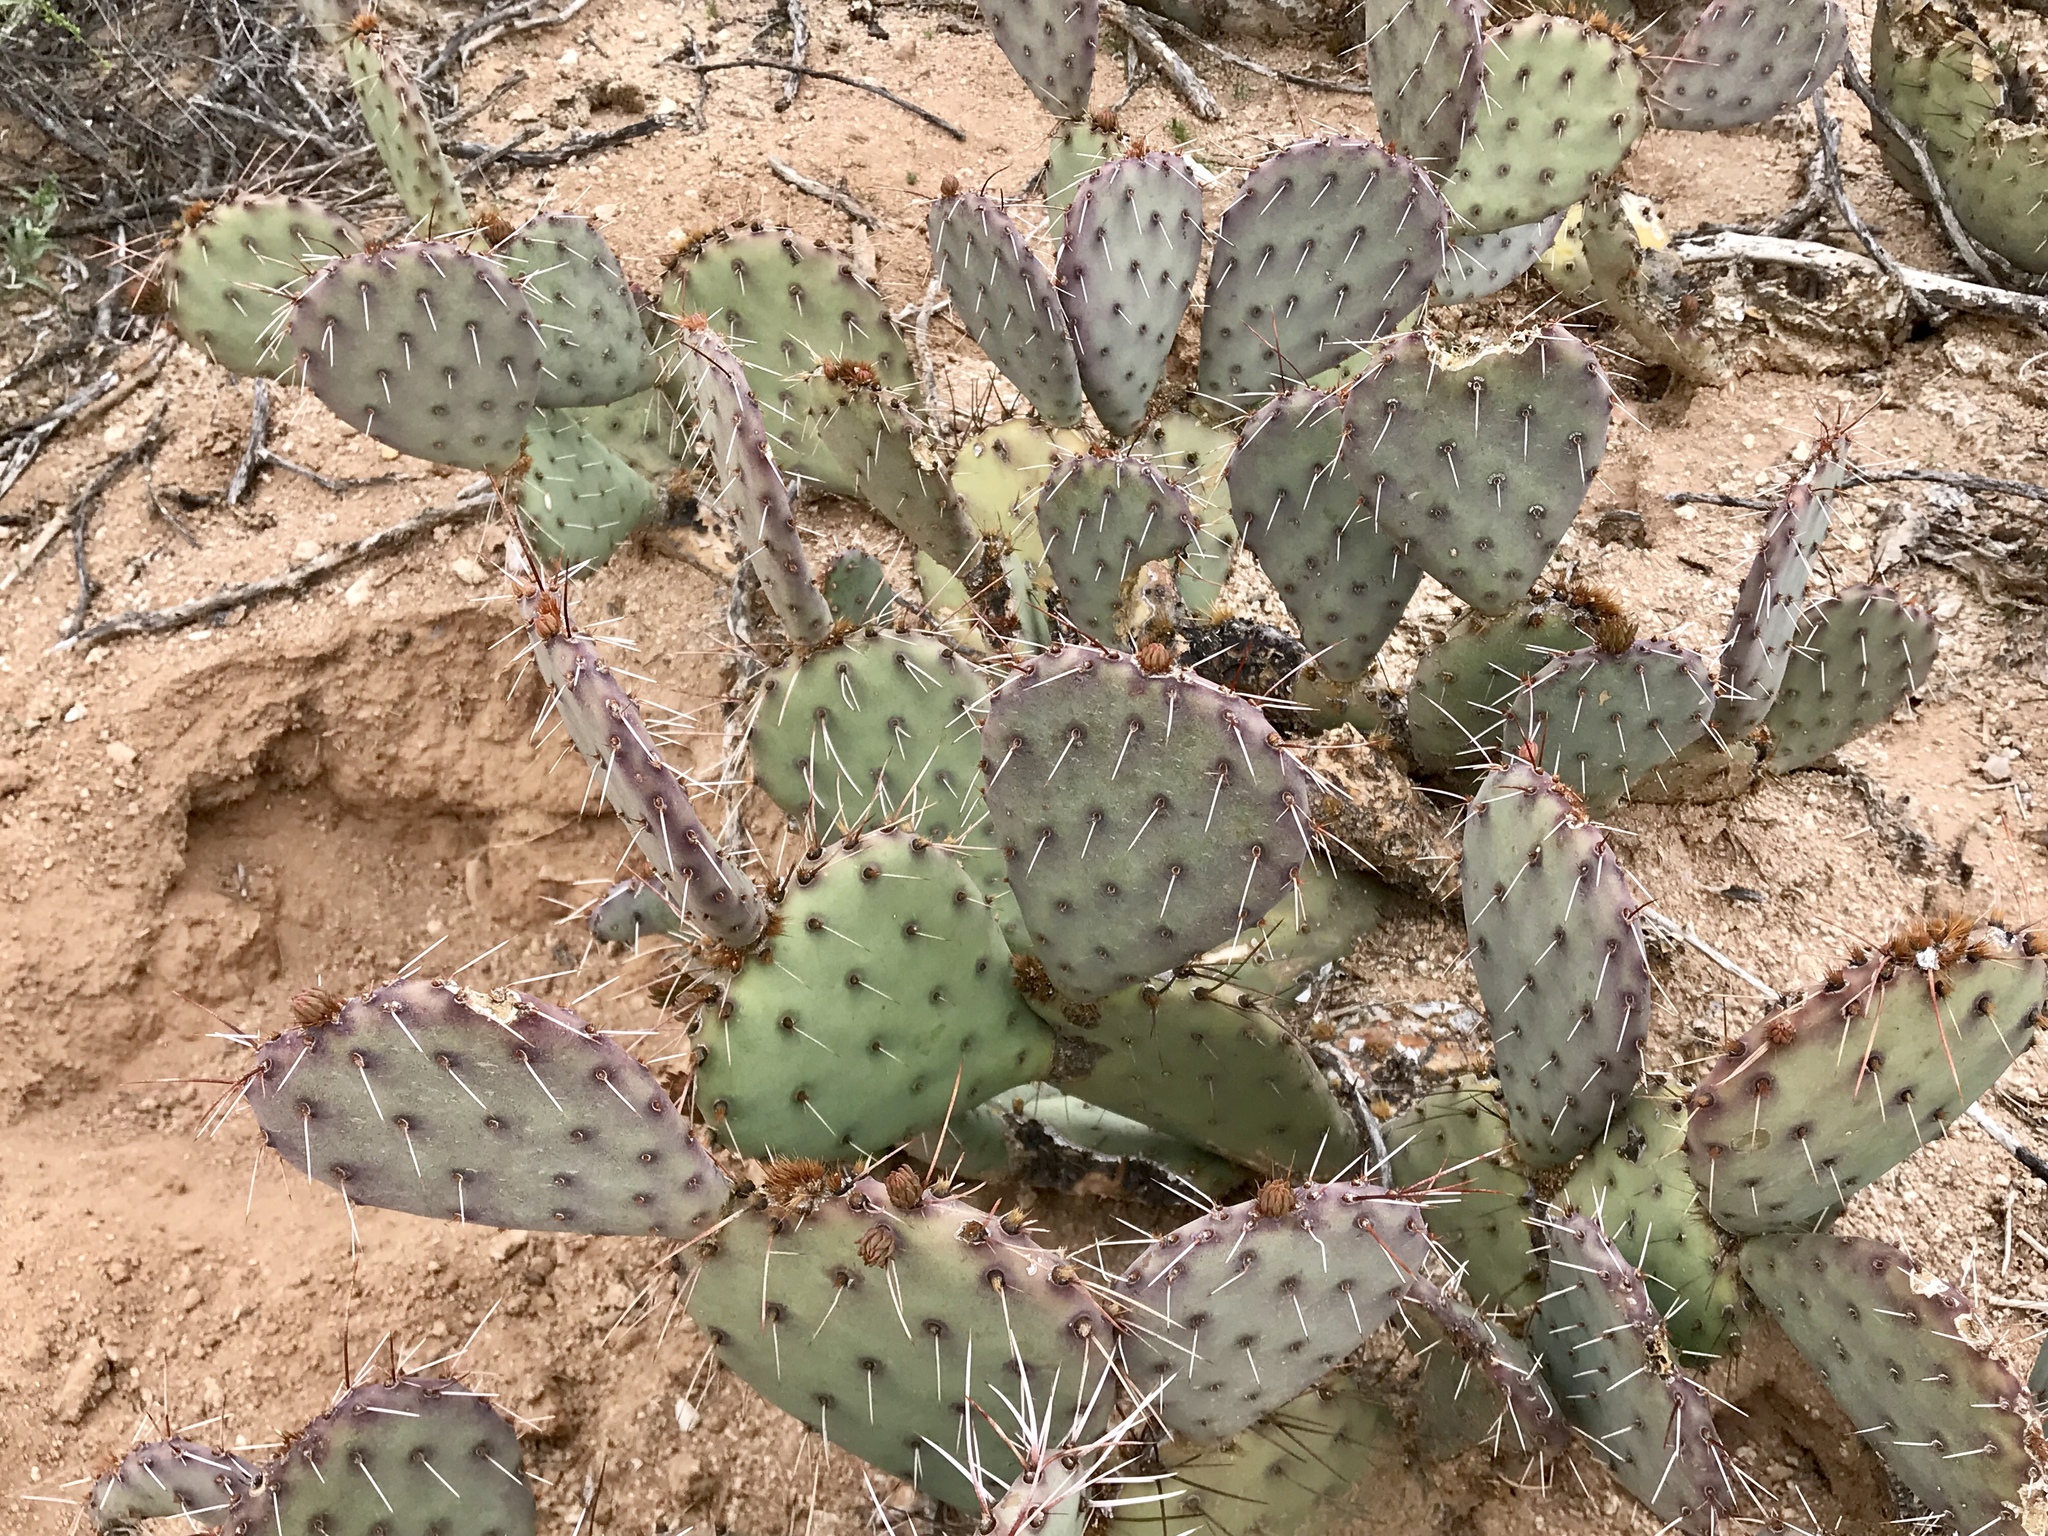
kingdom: Plantae
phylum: Tracheophyta
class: Magnoliopsida
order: Caryophyllales
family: Cactaceae
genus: Opuntia
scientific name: Opuntia phaeacantha
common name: New mexico prickly-pear
